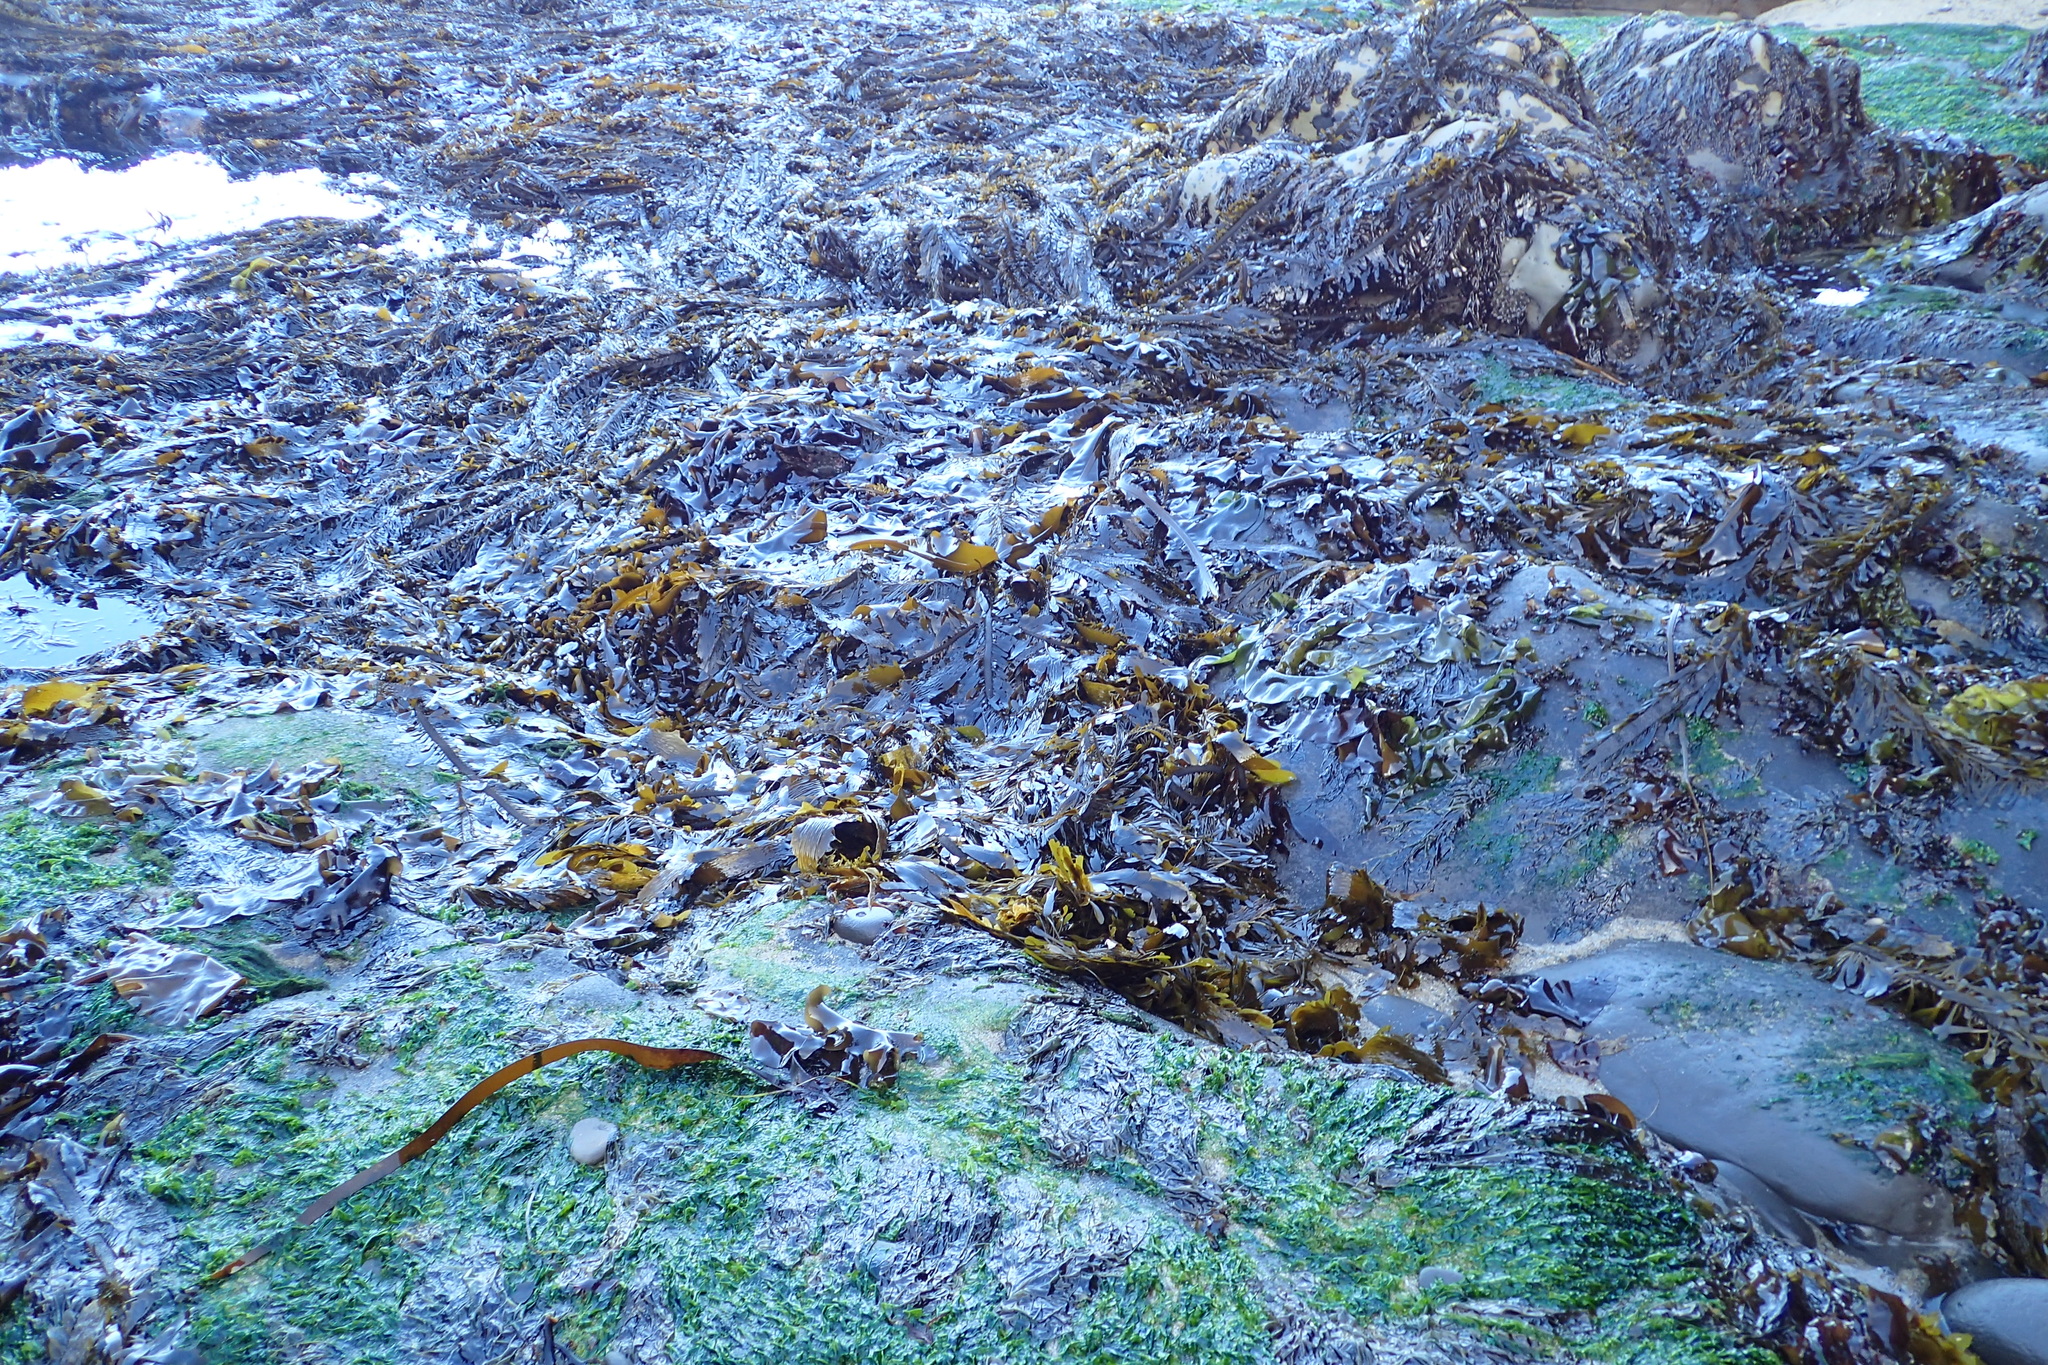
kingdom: Chromista
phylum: Ochrophyta
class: Phaeophyceae
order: Laminariales
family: Lessoniaceae
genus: Egregia
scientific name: Egregia menziesii
